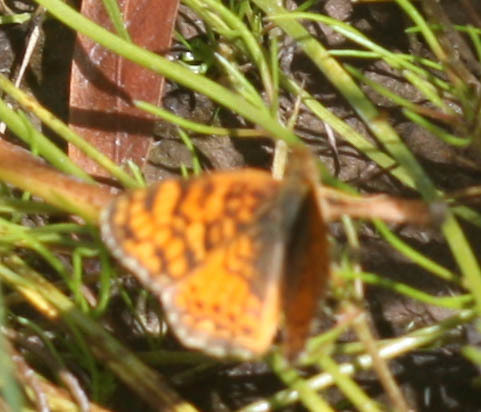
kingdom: Animalia
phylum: Arthropoda
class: Insecta
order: Lepidoptera
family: Nymphalidae
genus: Eresia
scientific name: Eresia aveyrona
